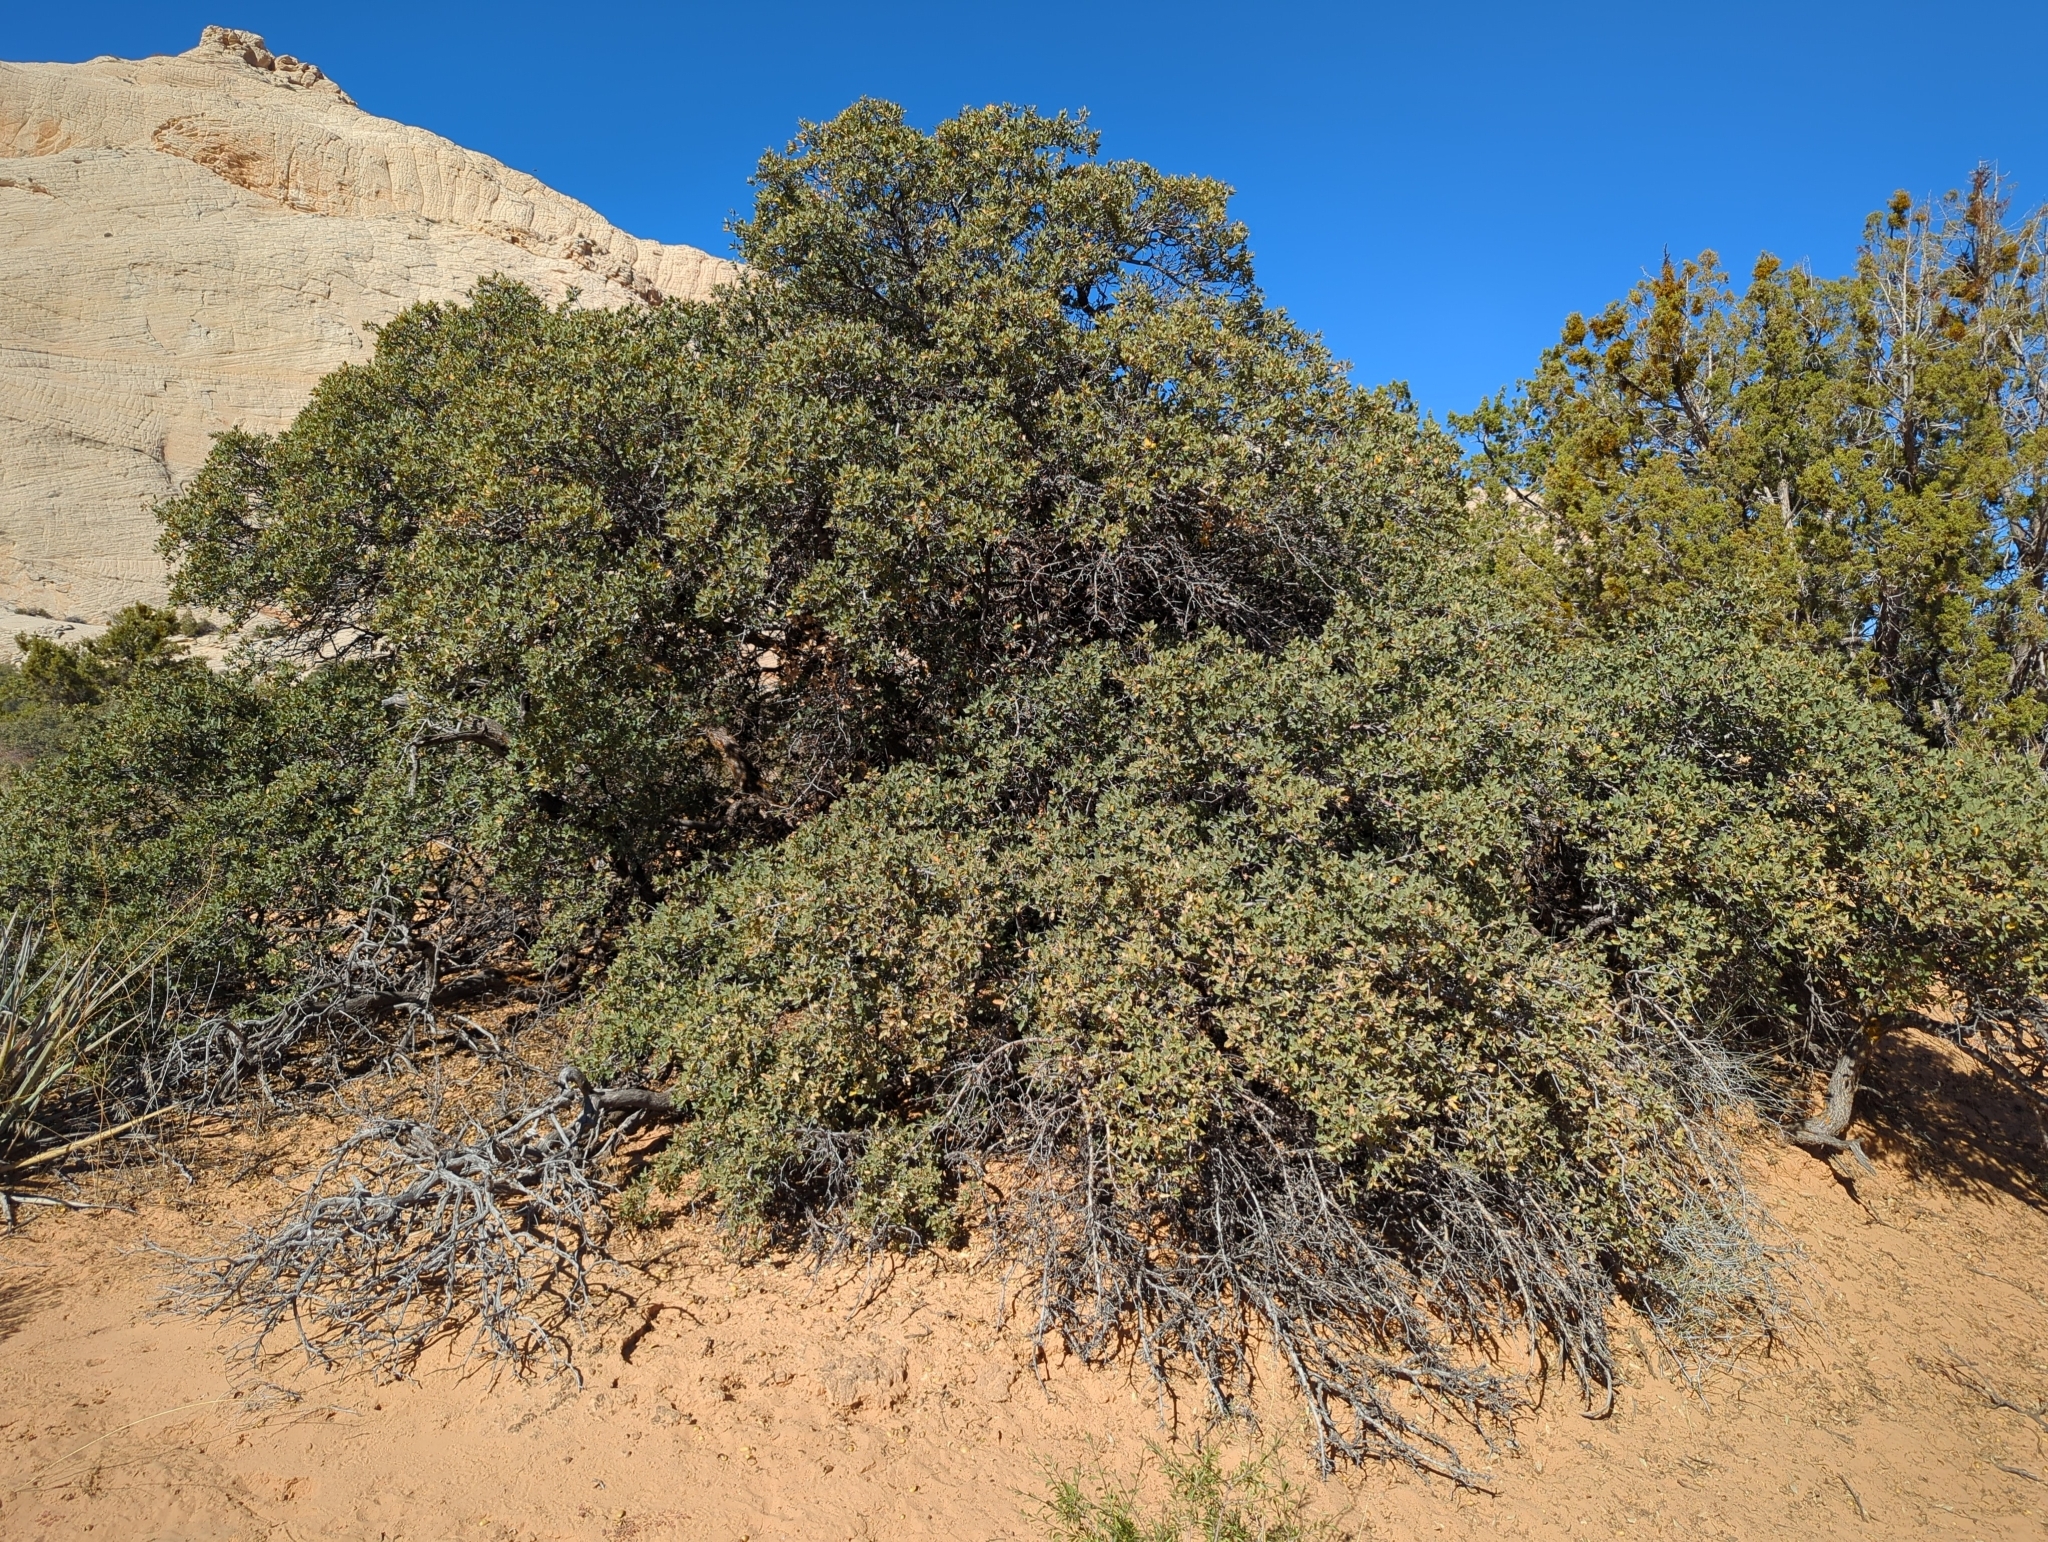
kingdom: Plantae
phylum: Tracheophyta
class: Magnoliopsida
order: Fagales
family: Fagaceae
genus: Quercus
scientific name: Quercus turbinella
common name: Sonoran scrub oak
